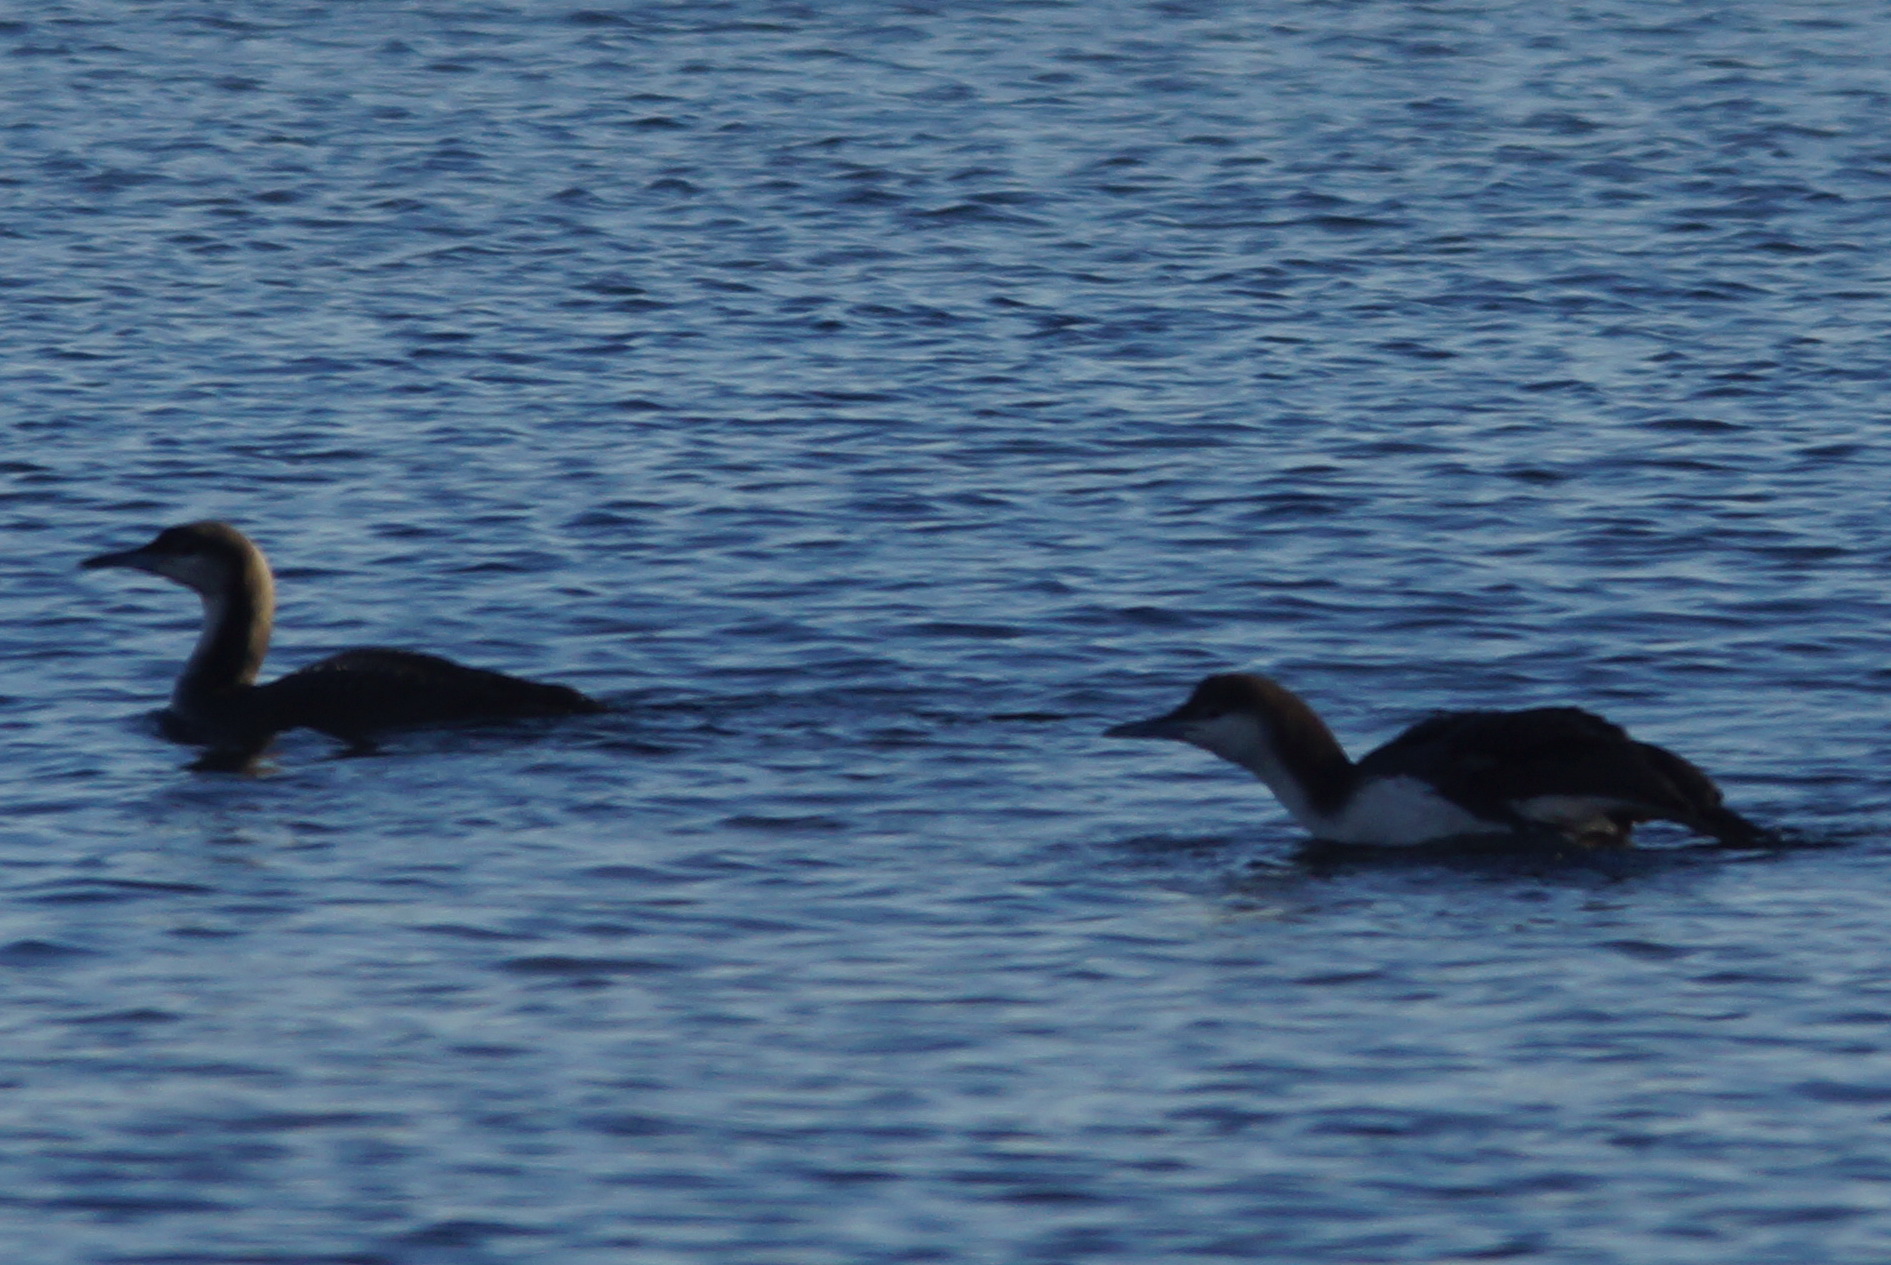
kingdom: Animalia
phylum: Chordata
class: Aves
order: Gaviiformes
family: Gaviidae
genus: Gavia
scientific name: Gavia arctica
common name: Black-throated loon
